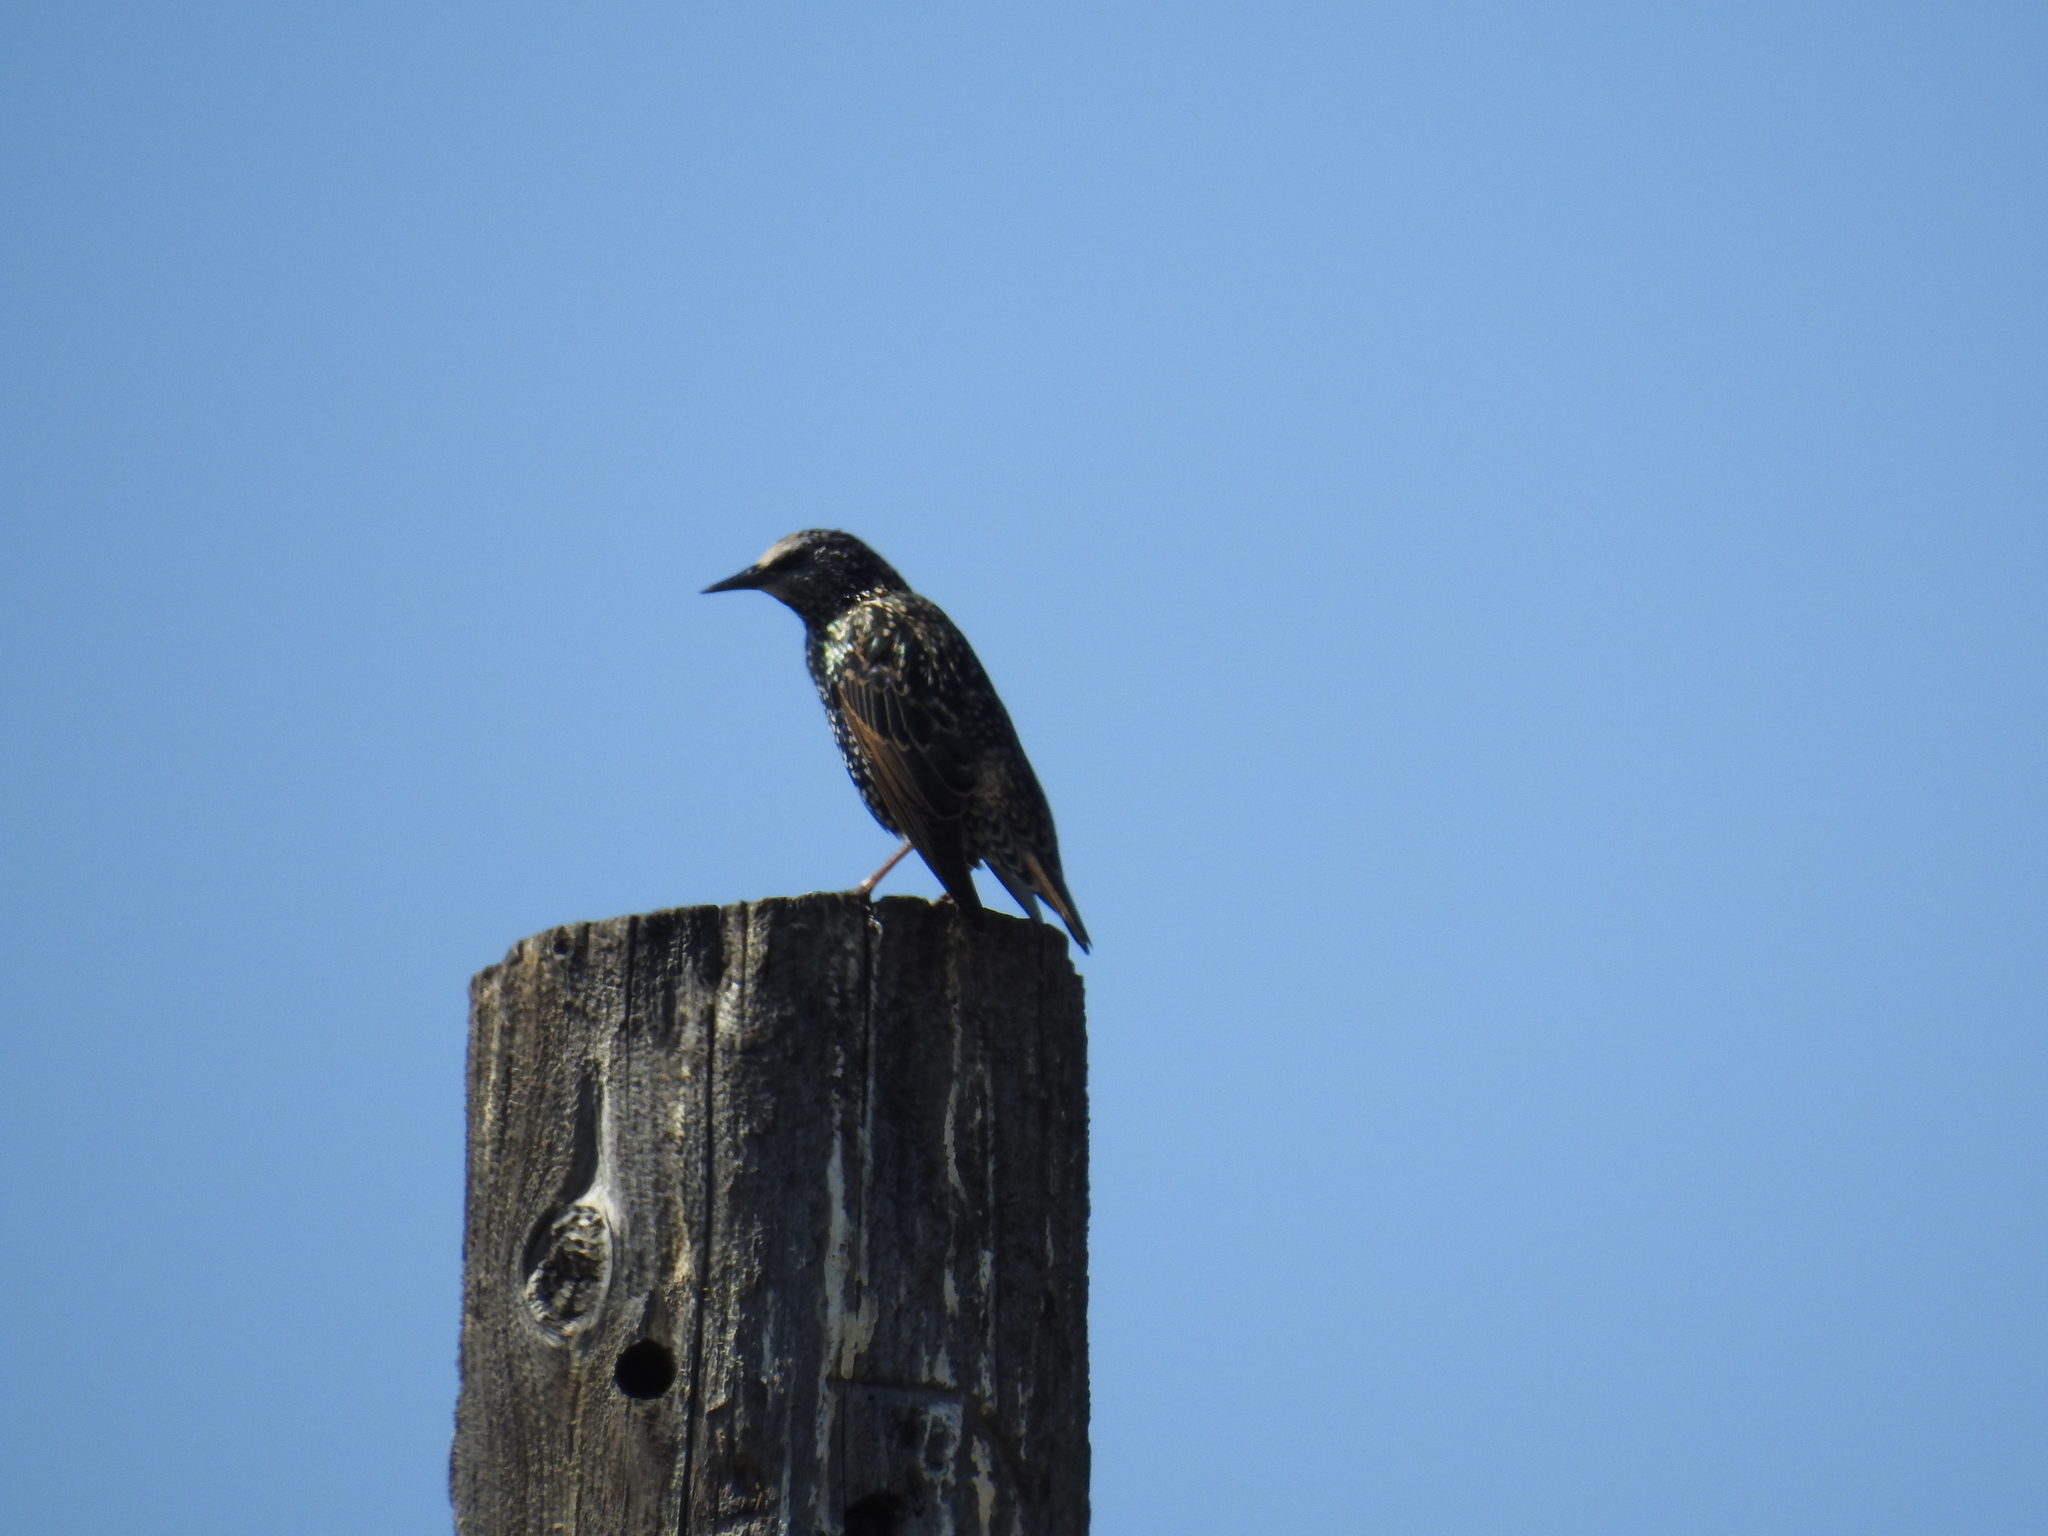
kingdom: Animalia
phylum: Chordata
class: Aves
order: Passeriformes
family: Sturnidae
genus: Sturnus
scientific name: Sturnus vulgaris
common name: Common starling
